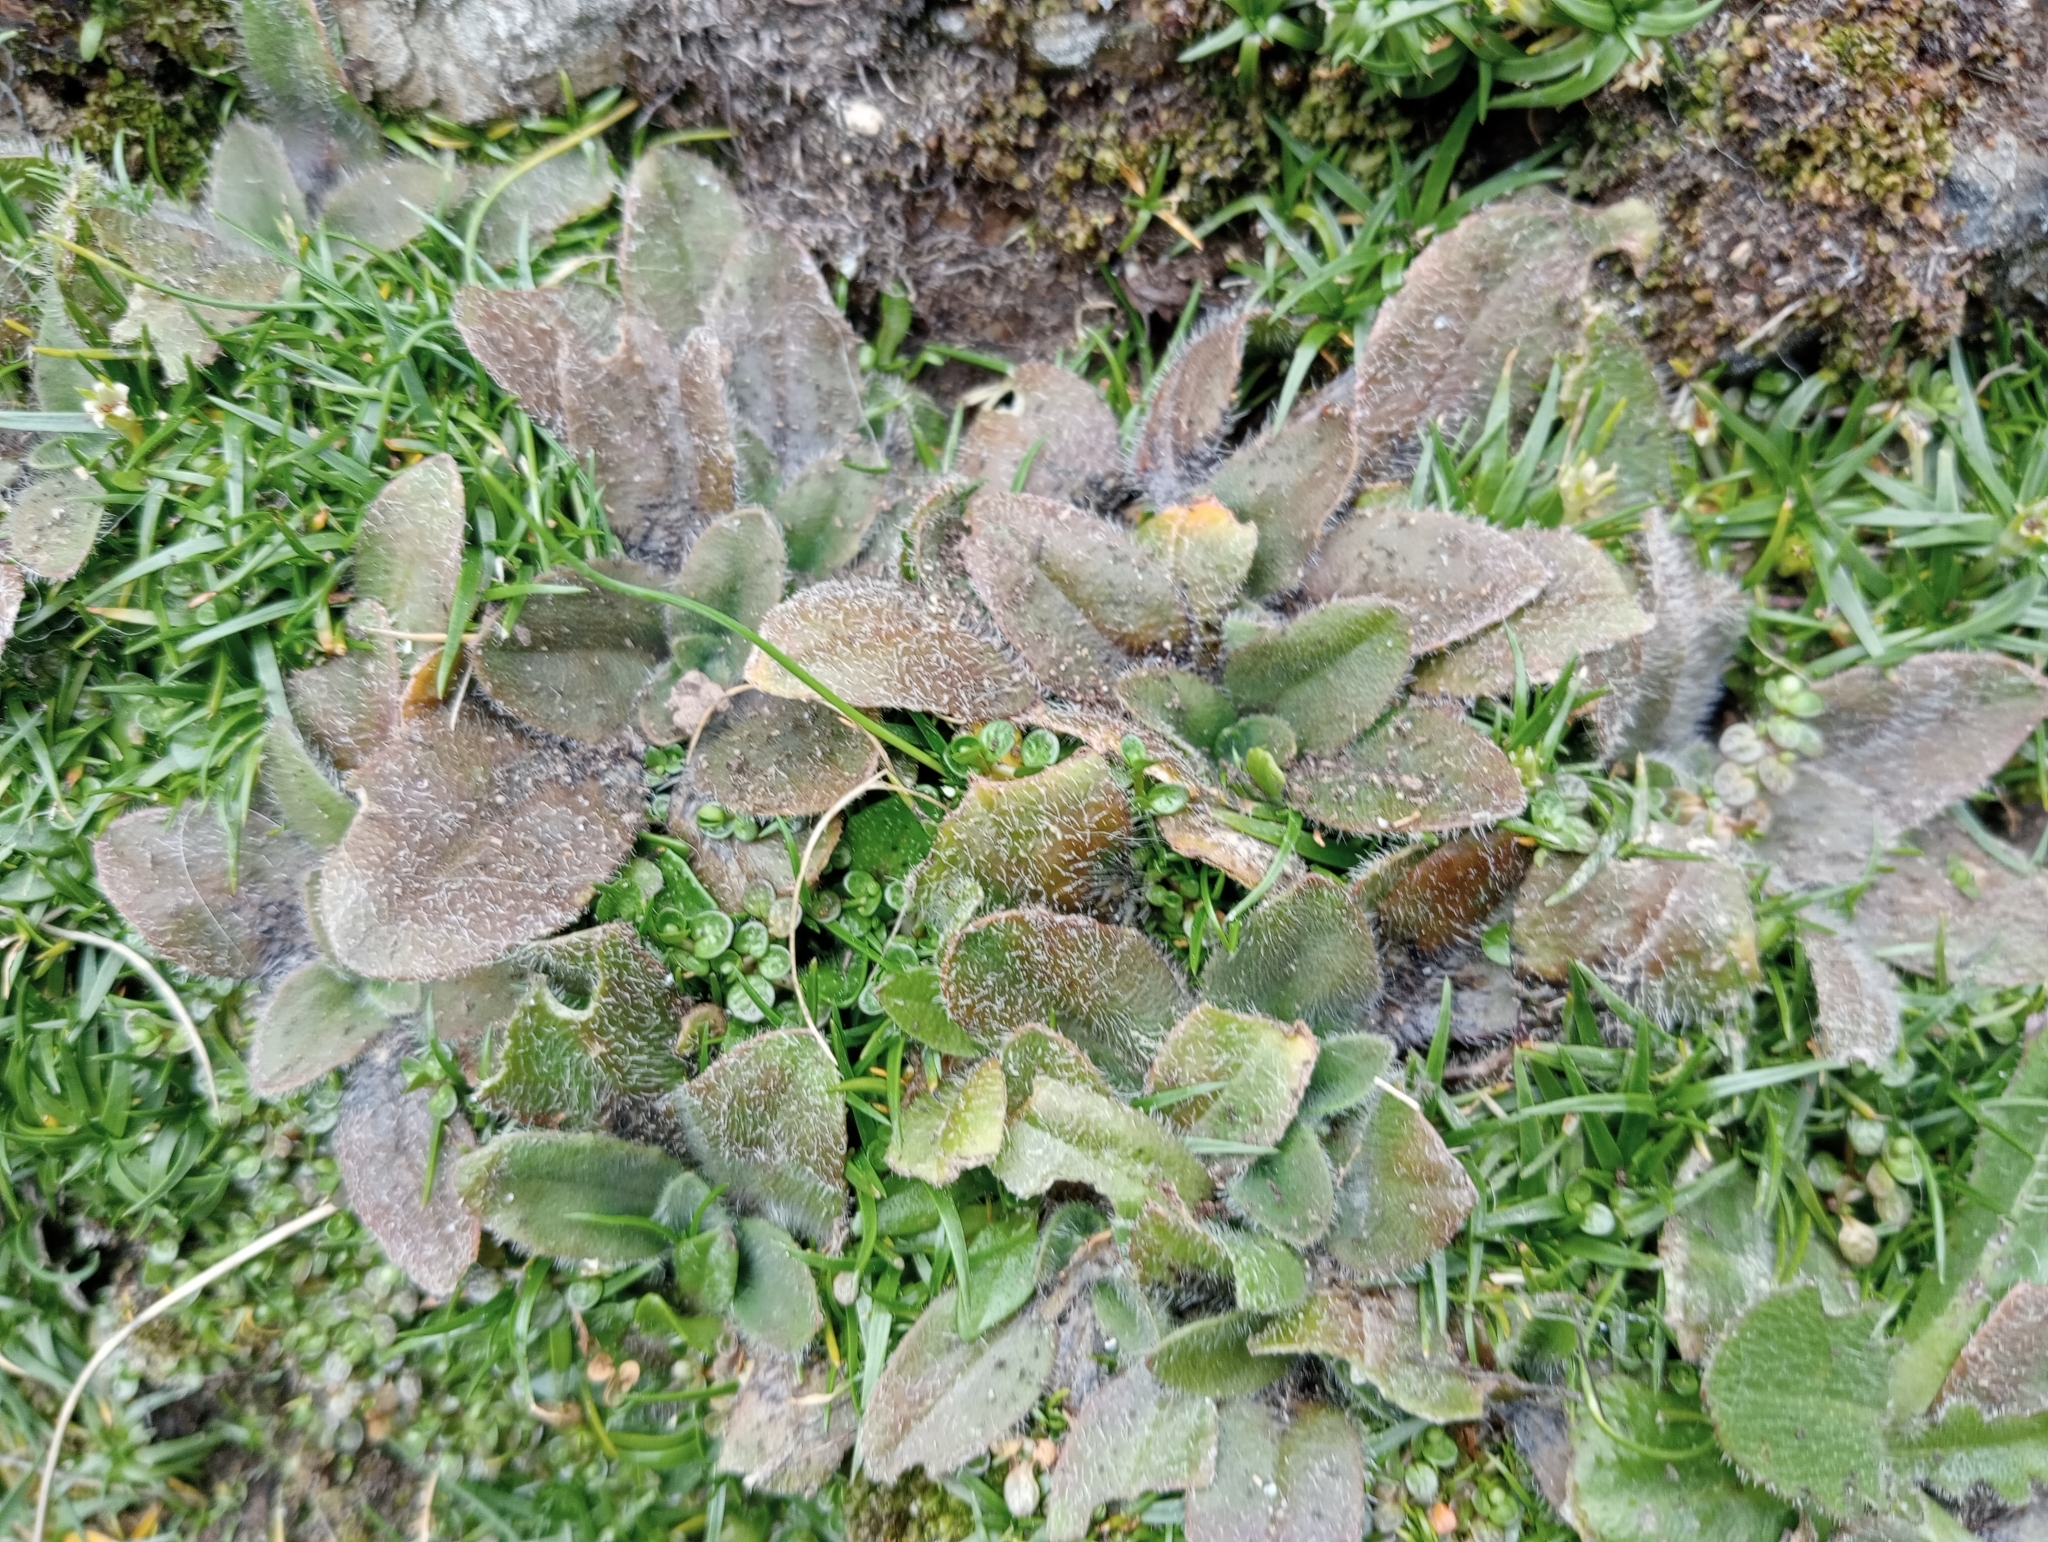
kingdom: Plantae
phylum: Tracheophyta
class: Magnoliopsida
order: Lamiales
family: Plantaginaceae
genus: Plantago
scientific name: Plantago raoulii
